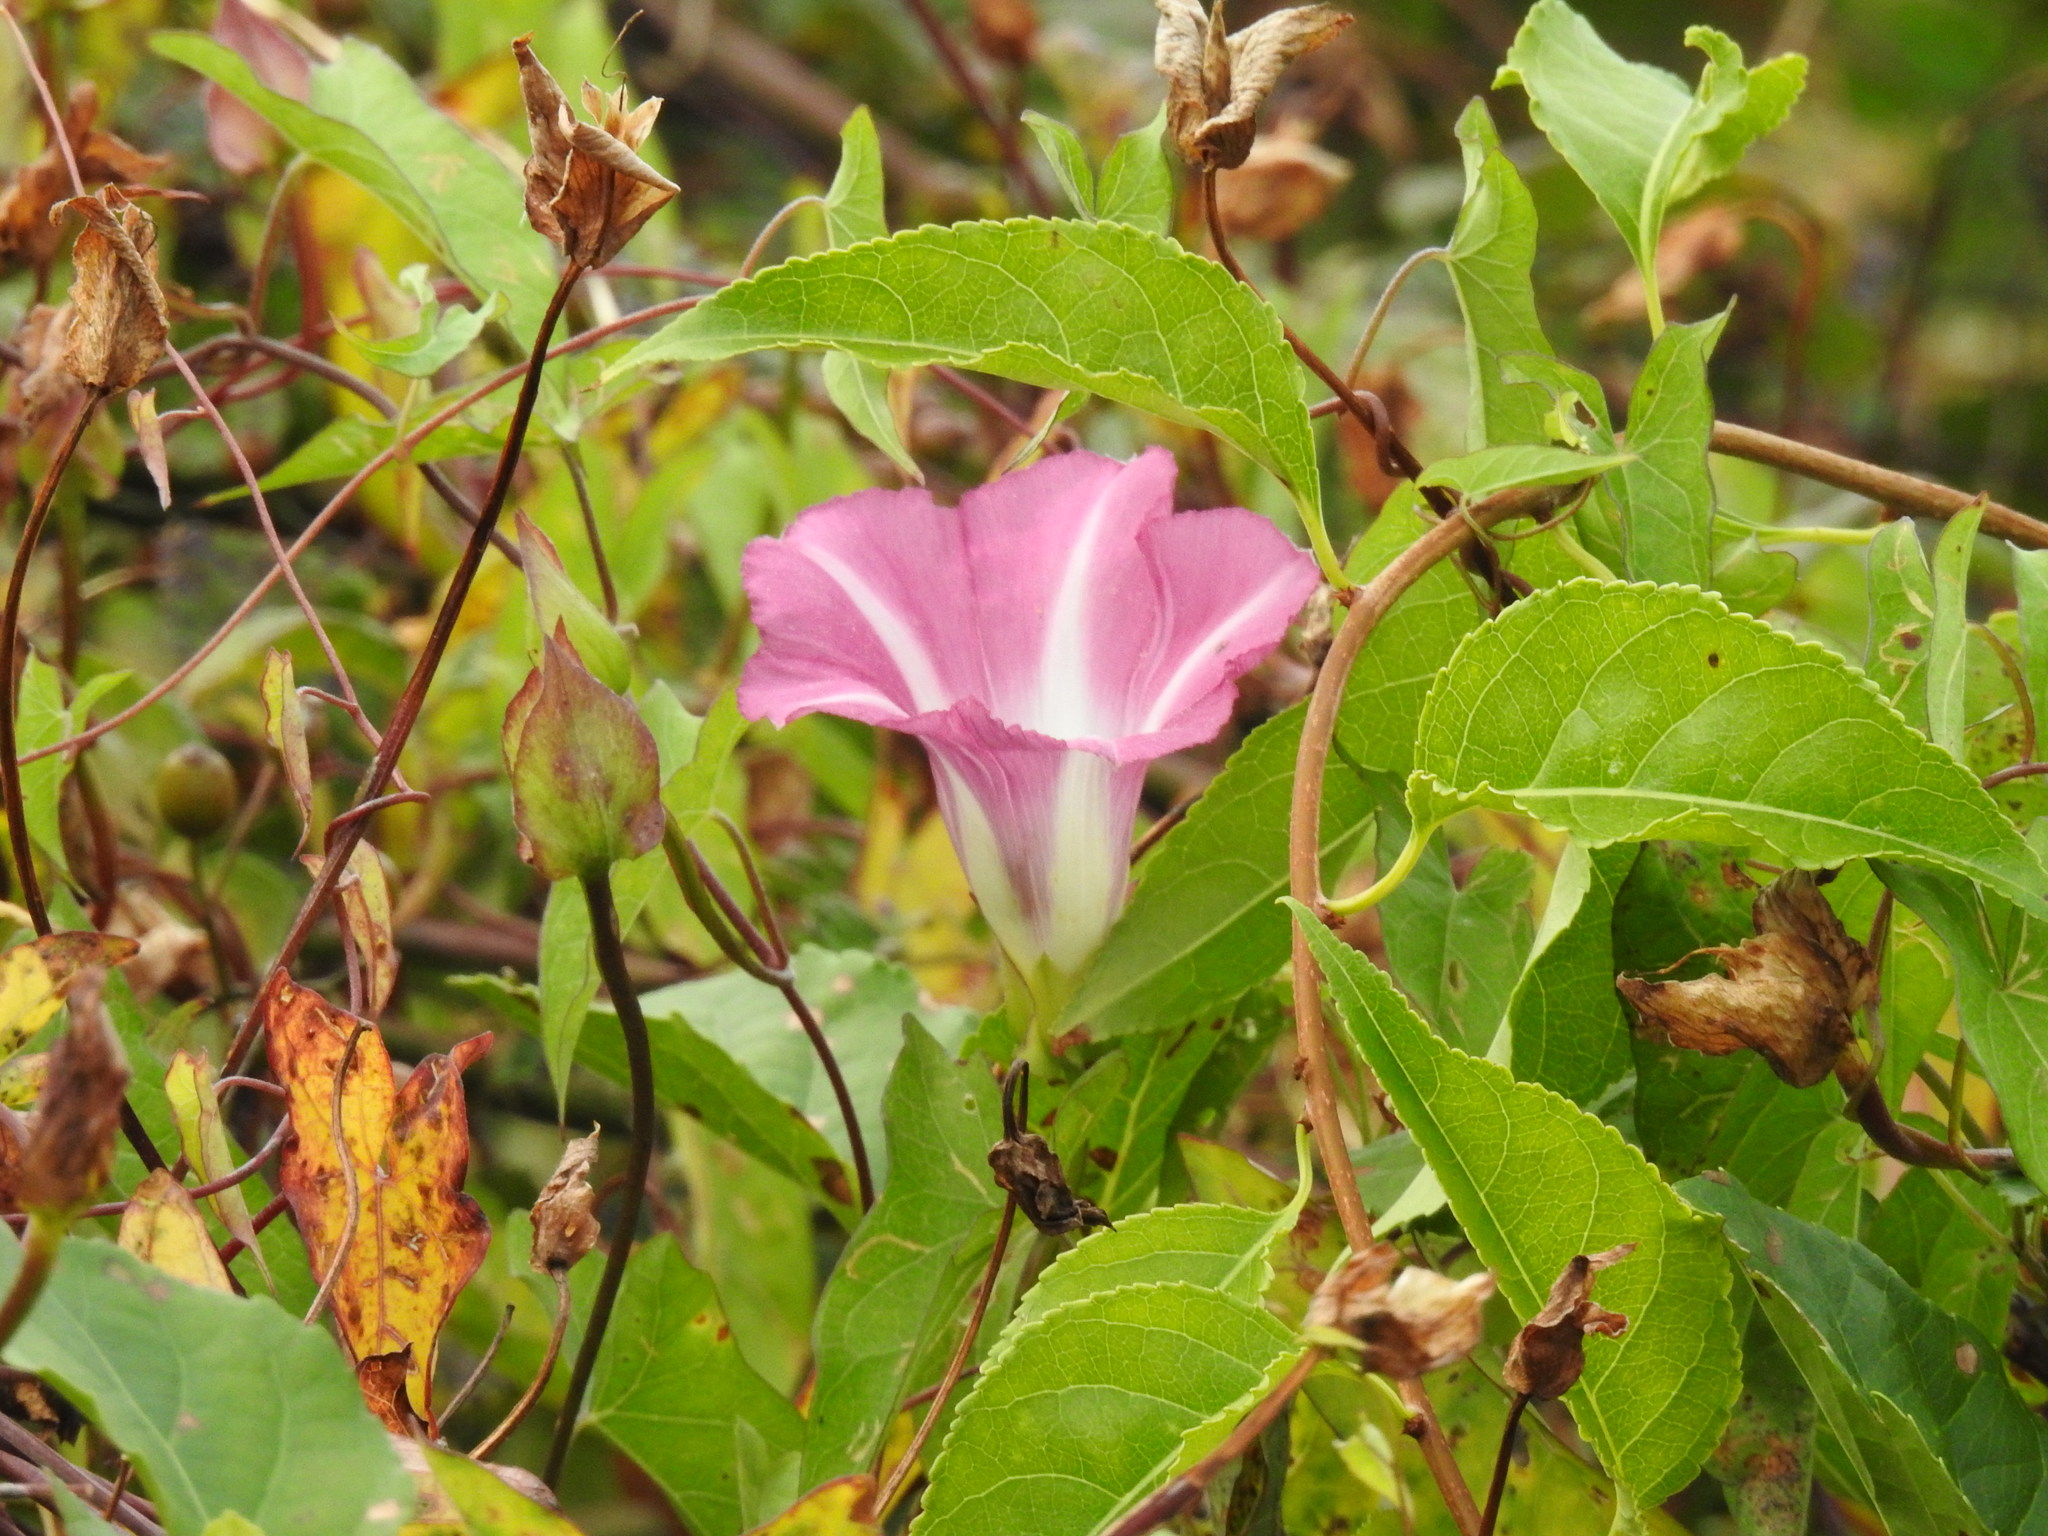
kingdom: Plantae
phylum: Tracheophyta
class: Magnoliopsida
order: Solanales
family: Convolvulaceae
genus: Calystegia
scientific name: Calystegia sepium
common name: Hedge bindweed
